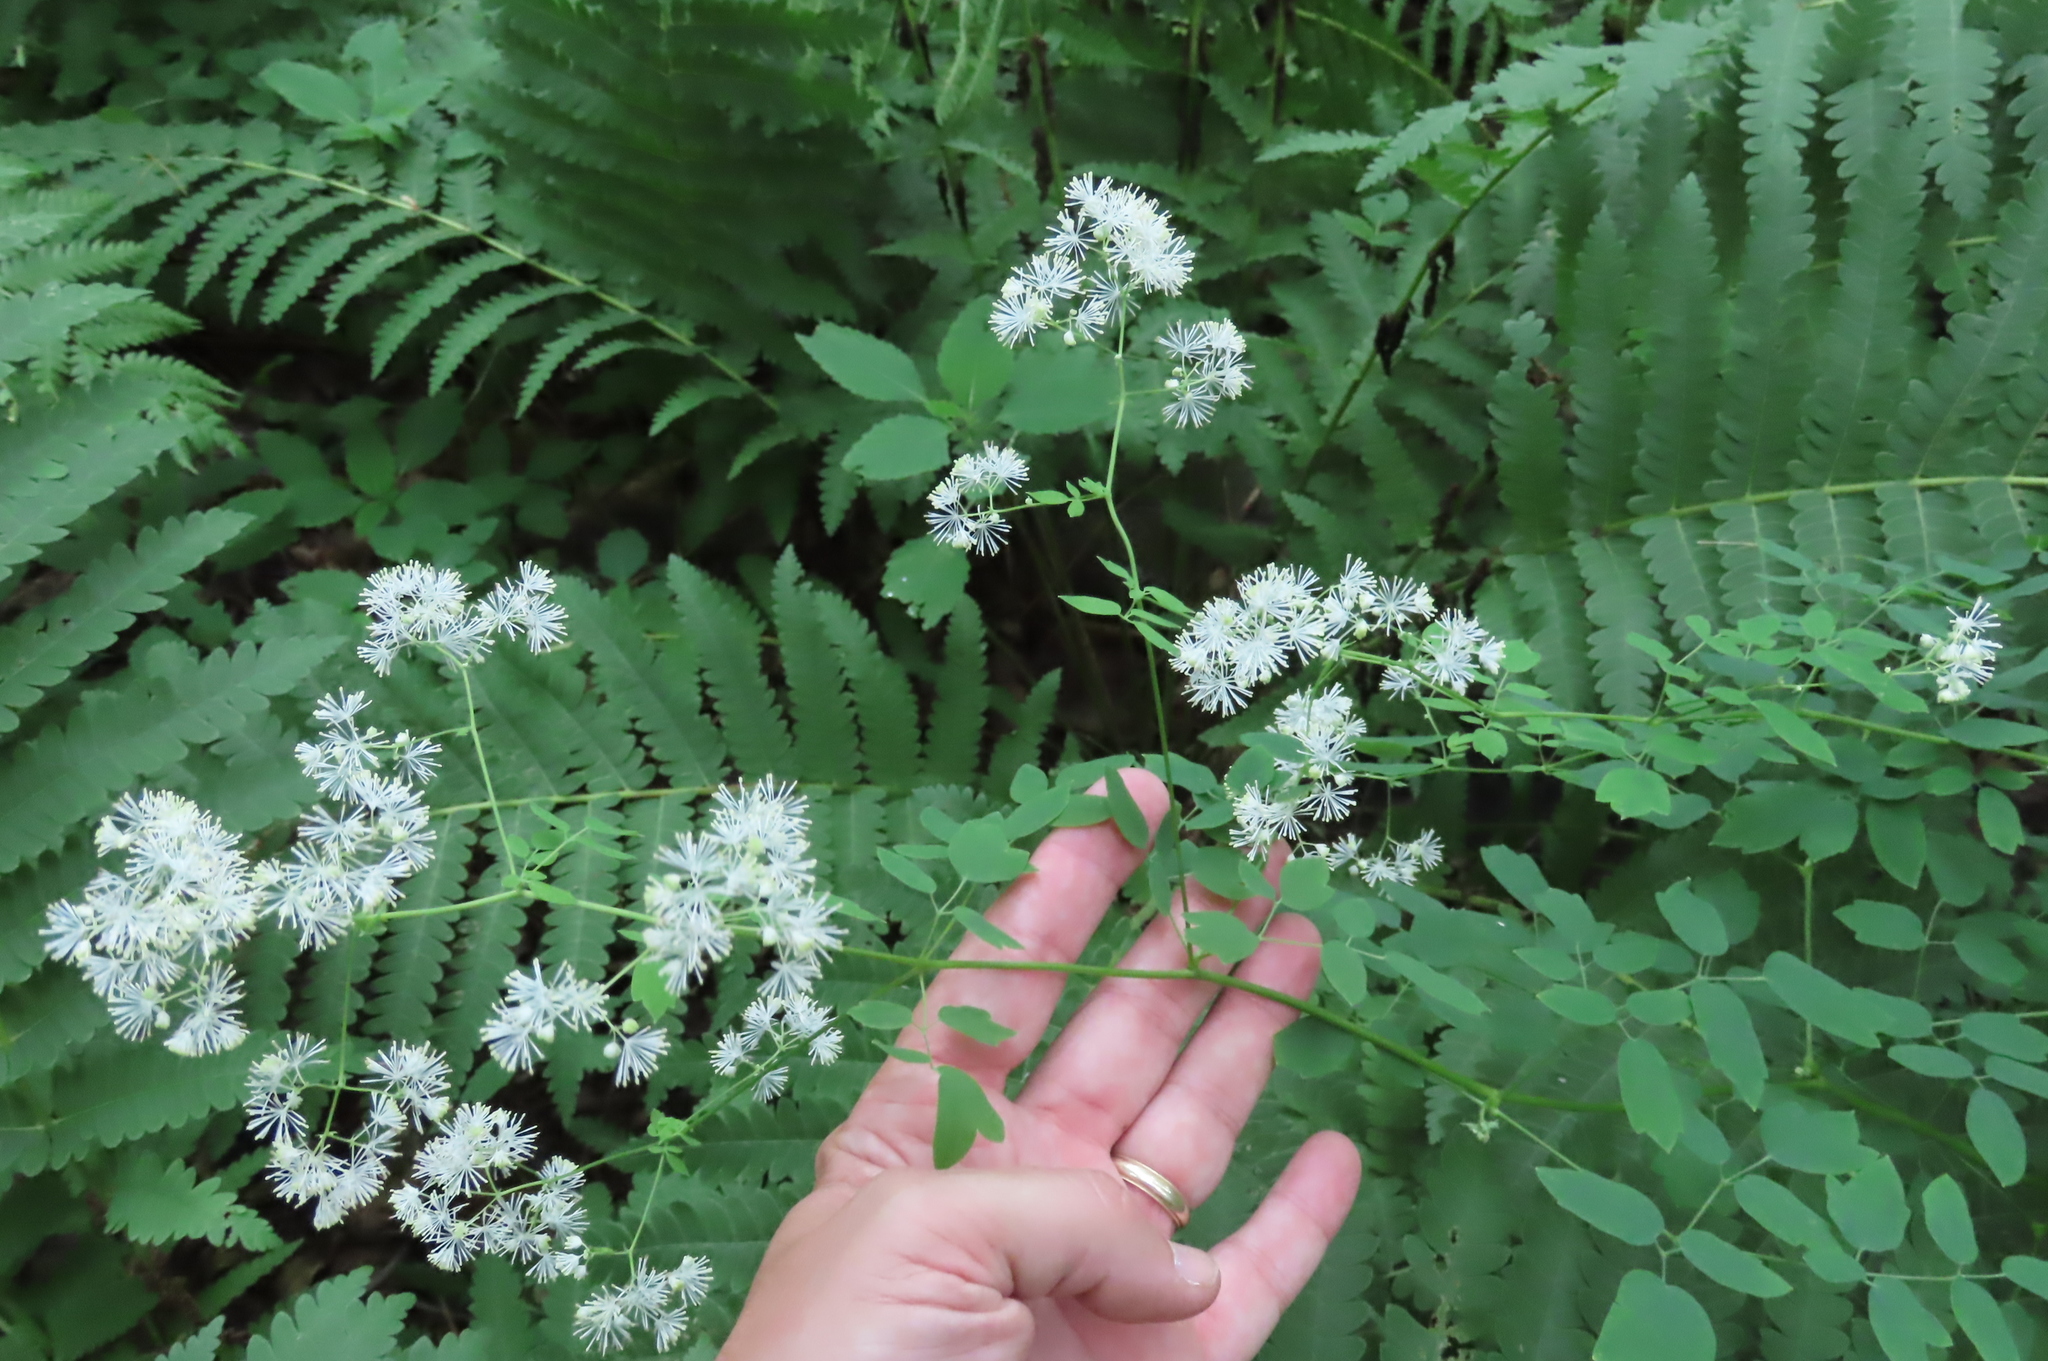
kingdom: Plantae
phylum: Tracheophyta
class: Magnoliopsida
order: Ranunculales
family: Ranunculaceae
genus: Thalictrum
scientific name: Thalictrum pubescens
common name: King-of-the-meadow
